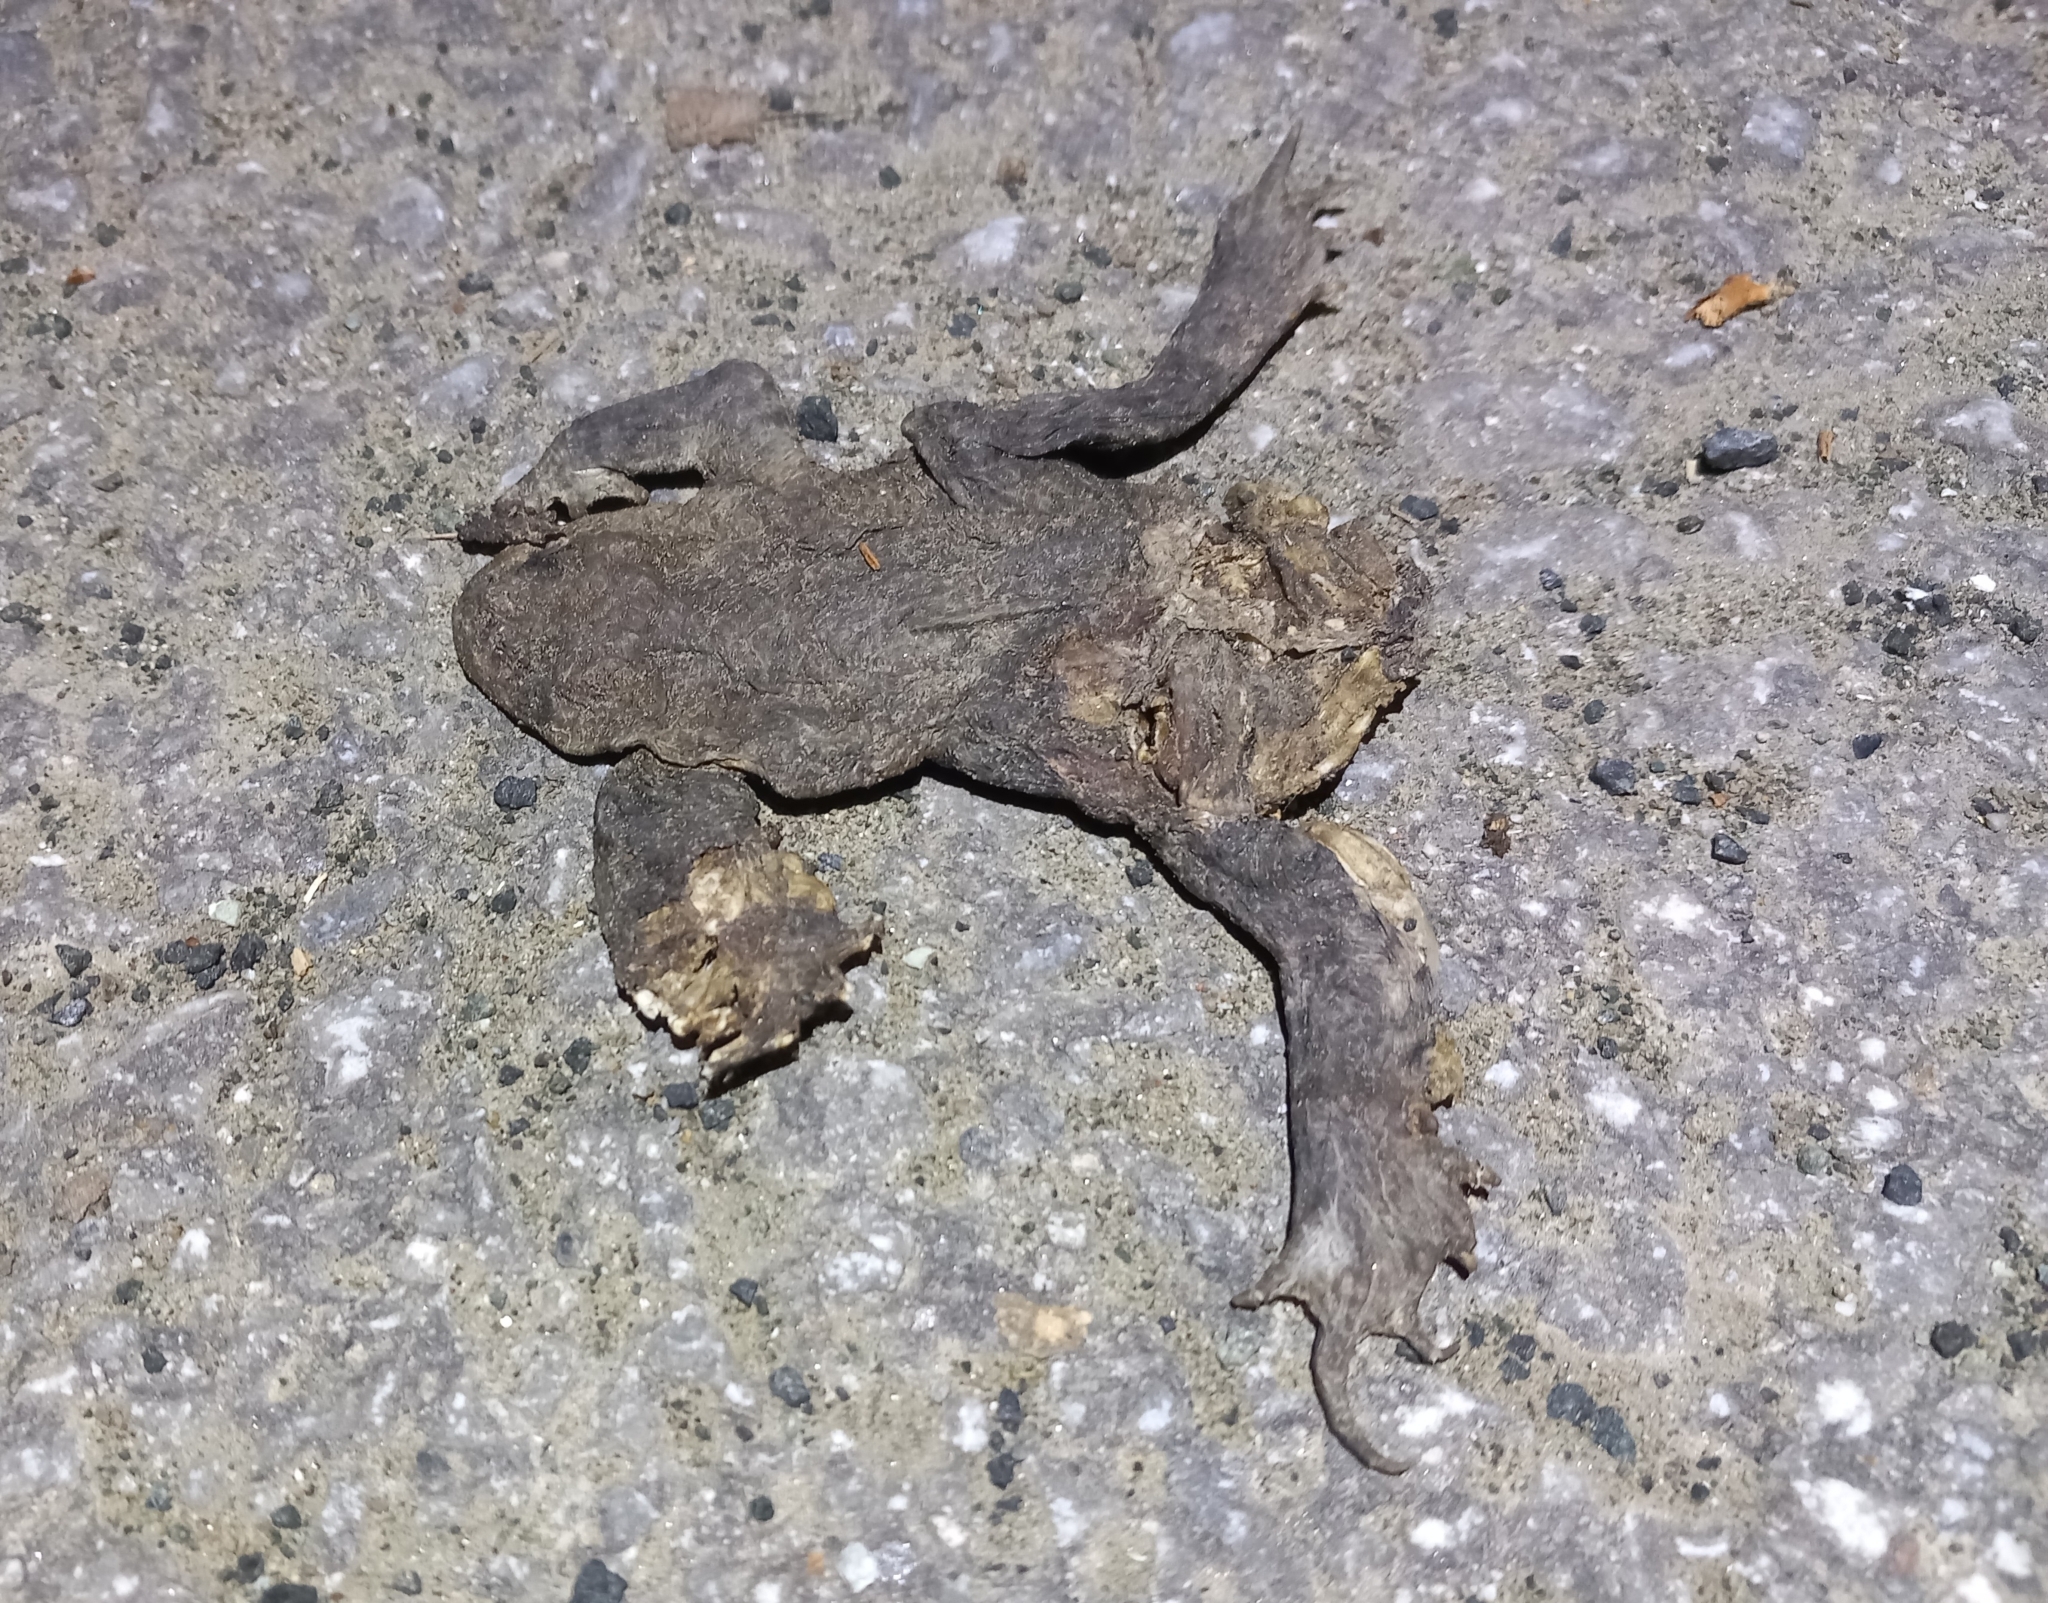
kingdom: Animalia
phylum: Chordata
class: Amphibia
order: Anura
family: Bufonidae
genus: Bufo
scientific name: Bufo bufo
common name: Common toad
